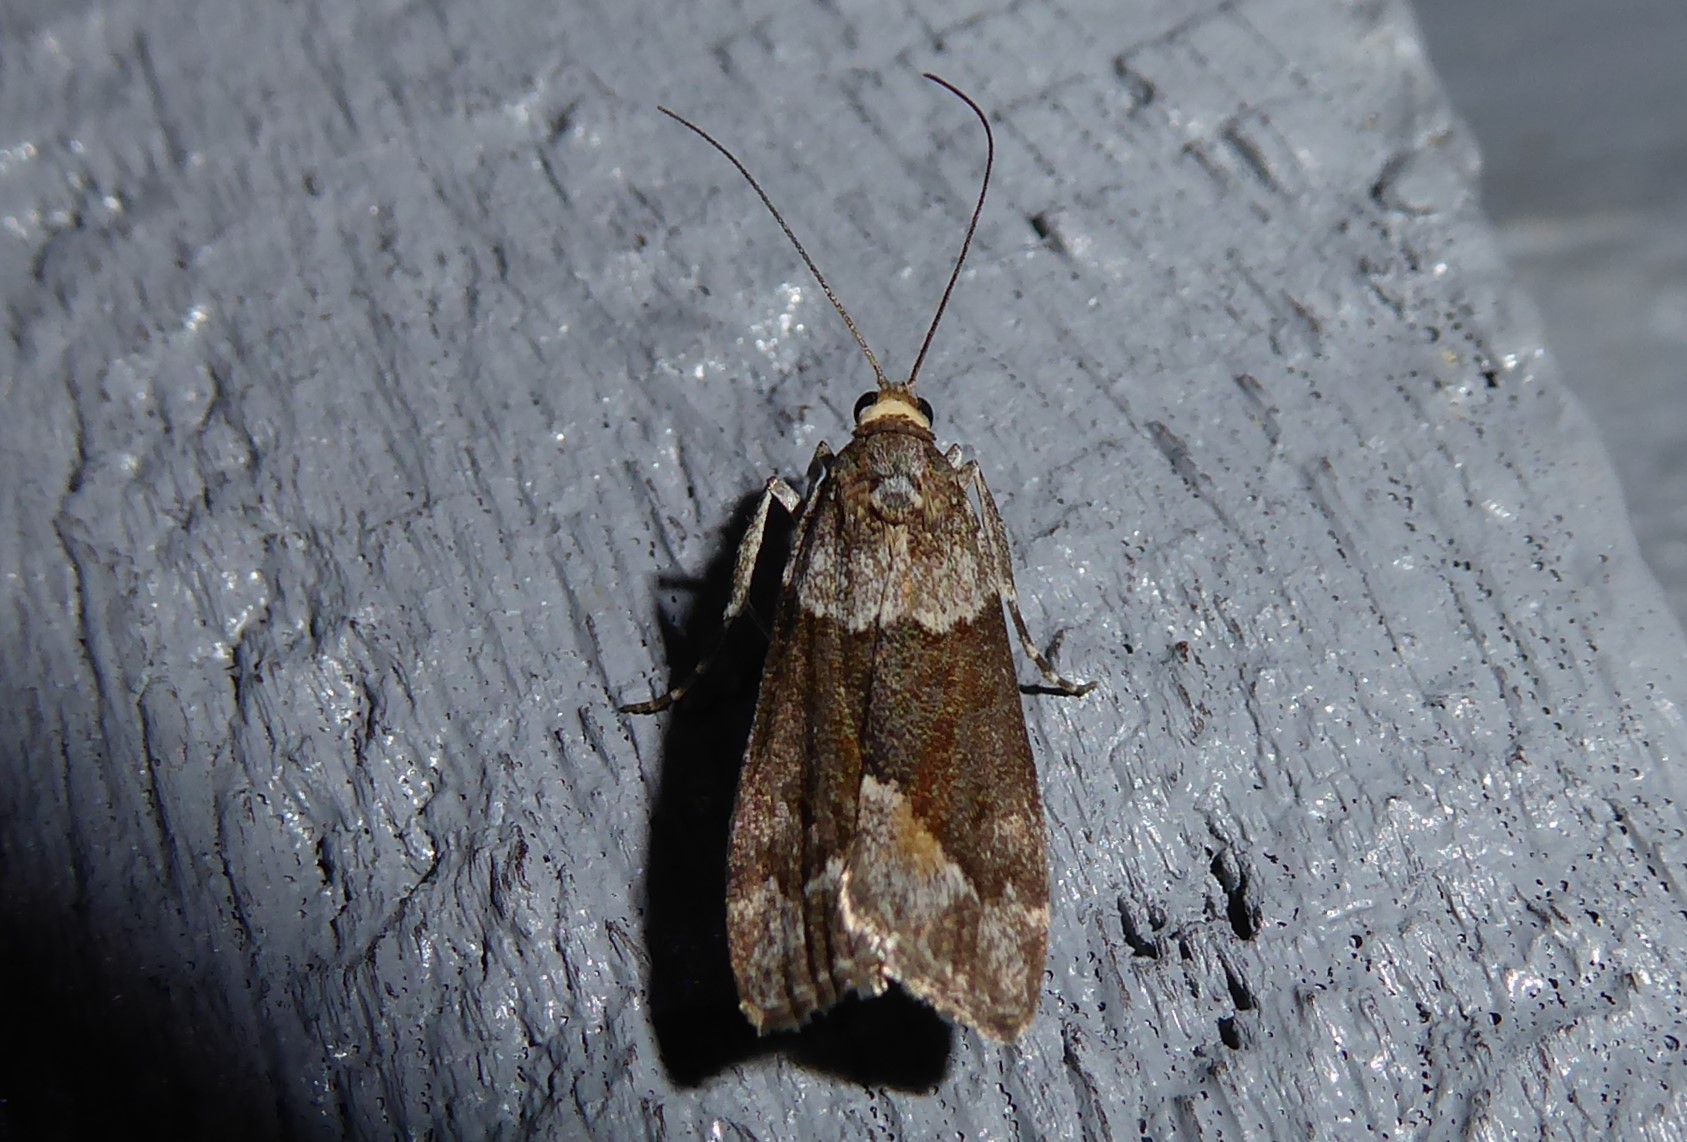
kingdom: Animalia
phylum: Arthropoda
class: Insecta
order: Lepidoptera
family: Crambidae
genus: Eudonia
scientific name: Eudonia submarginalis
